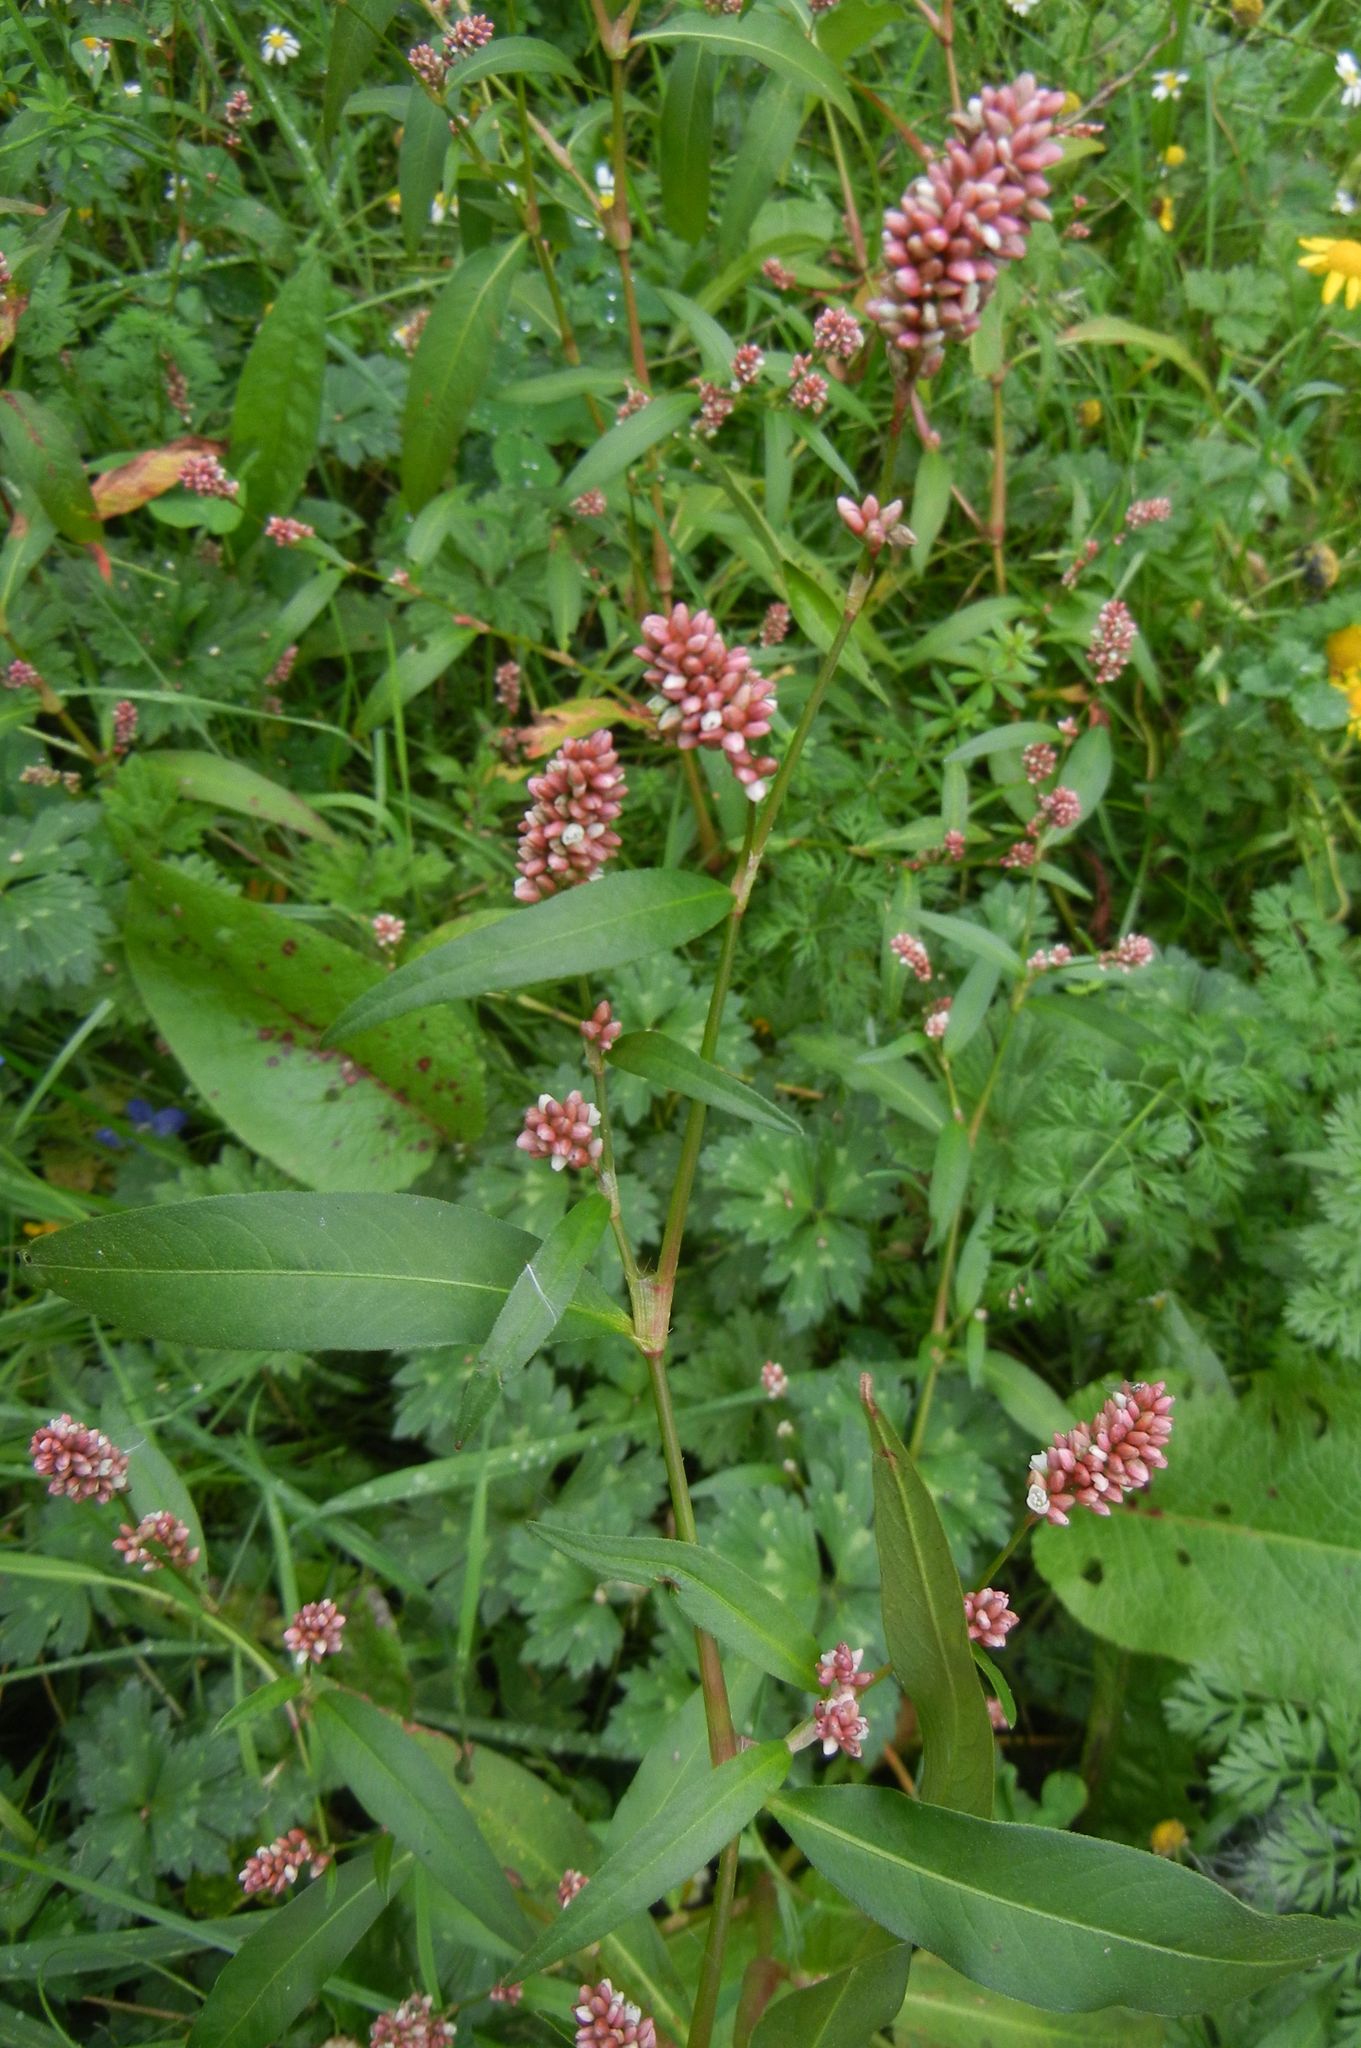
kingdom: Plantae
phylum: Tracheophyta
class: Magnoliopsida
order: Caryophyllales
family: Polygonaceae
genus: Persicaria
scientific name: Persicaria maculosa
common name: Redshank
